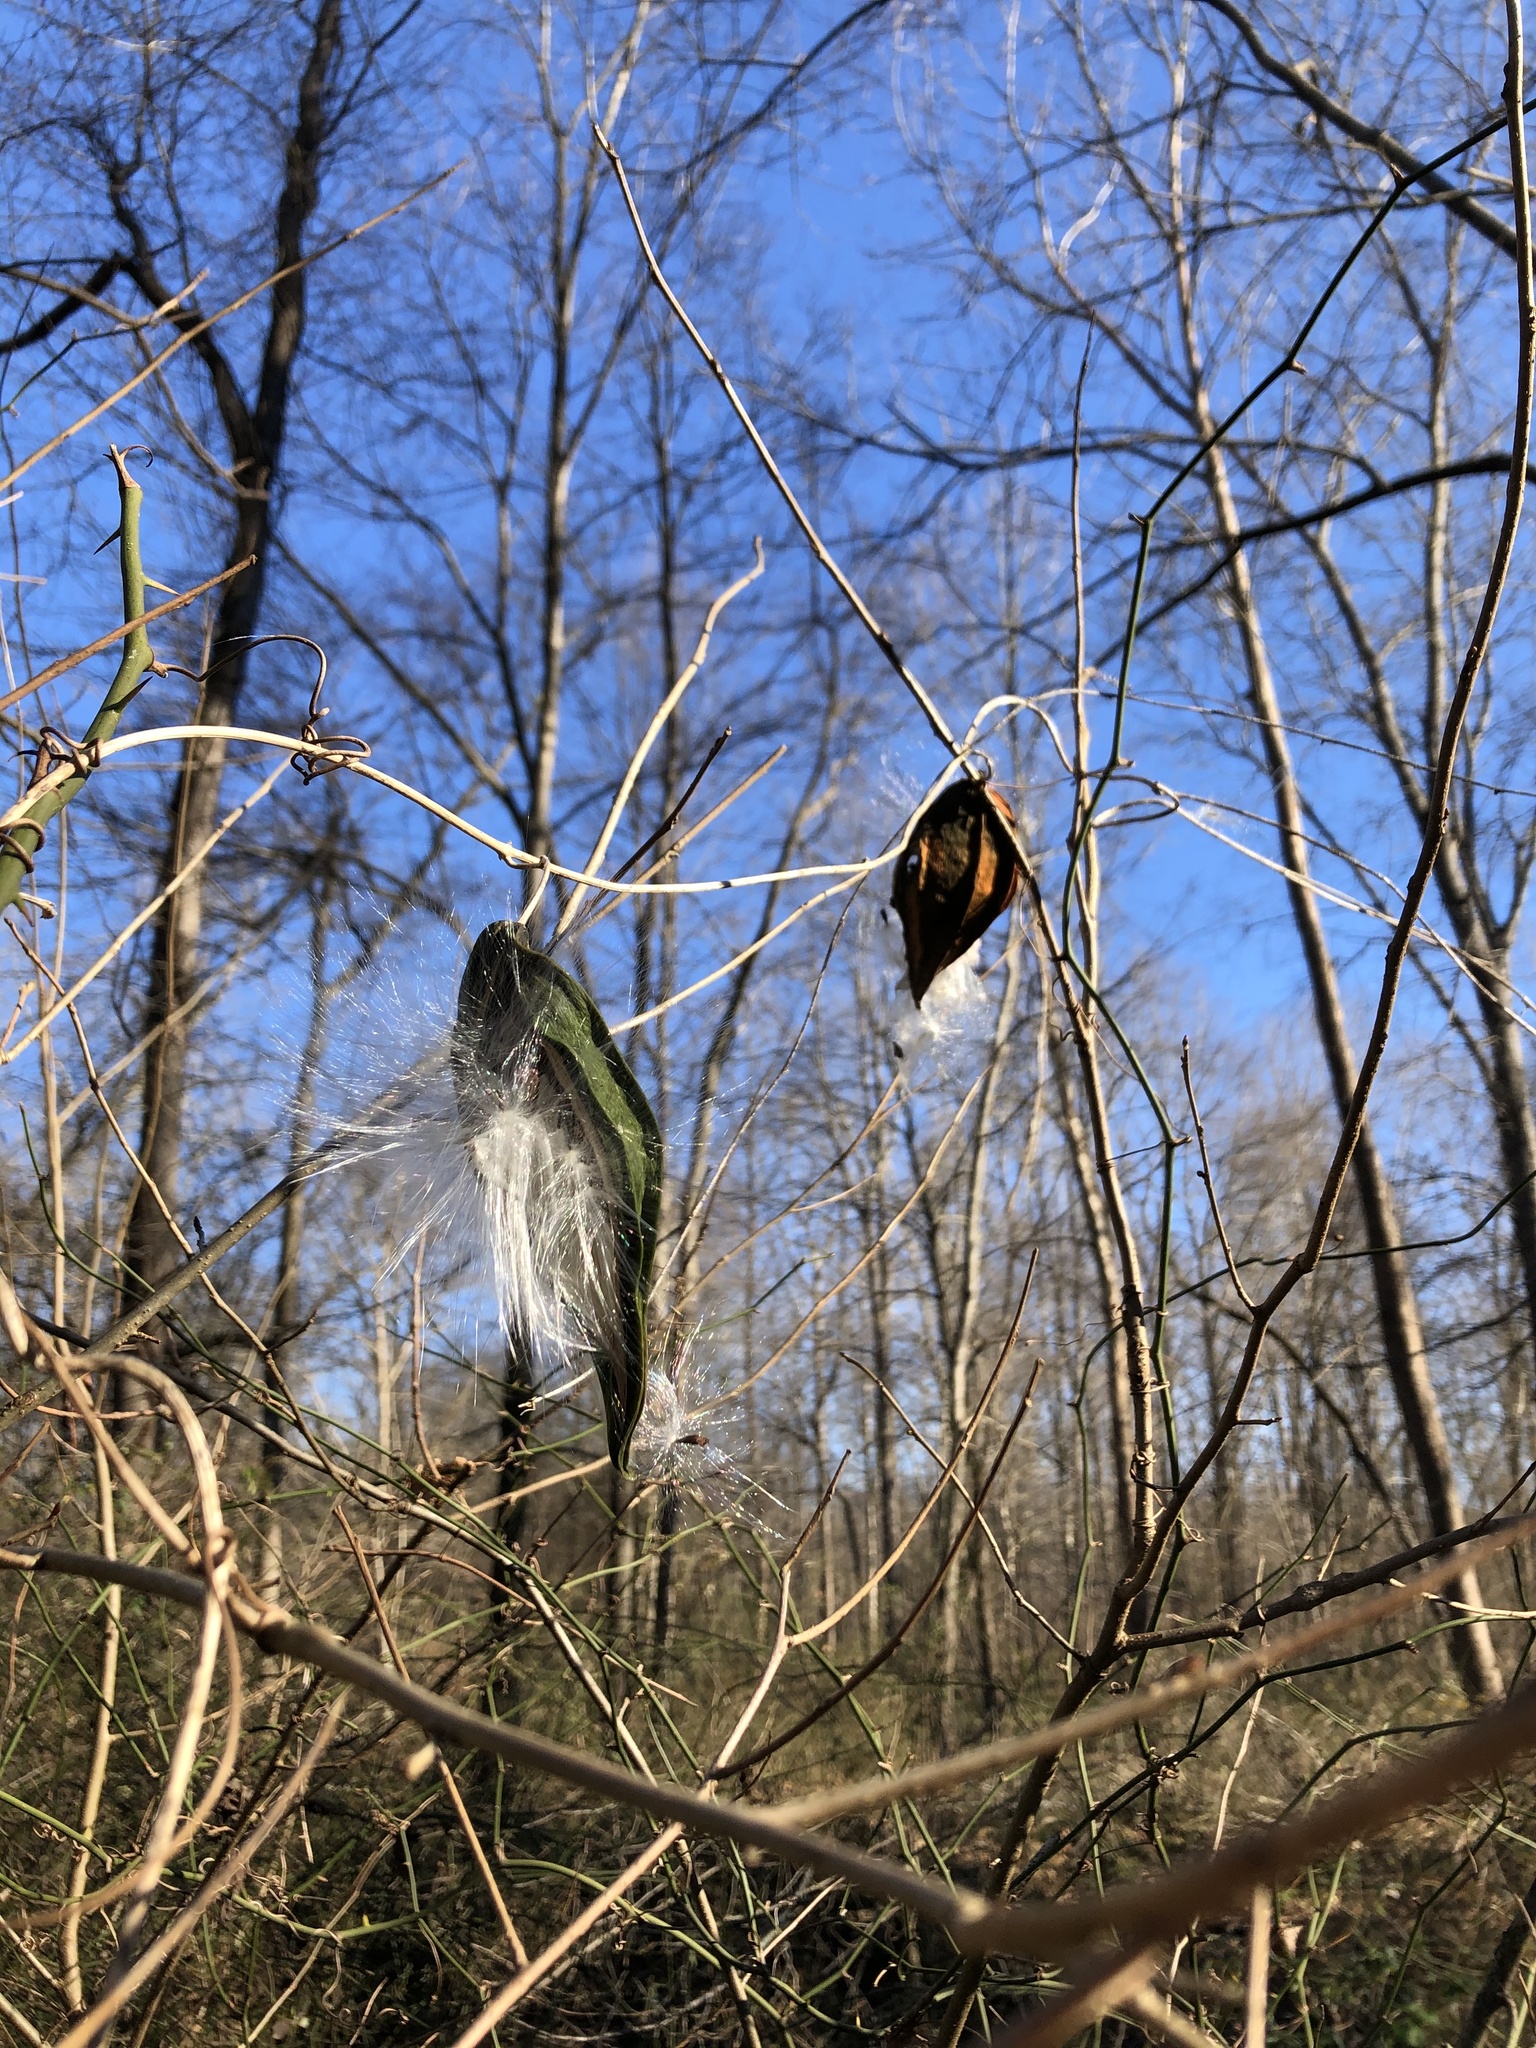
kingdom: Plantae
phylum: Tracheophyta
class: Magnoliopsida
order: Gentianales
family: Apocynaceae
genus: Gonolobus
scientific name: Gonolobus suberosus
